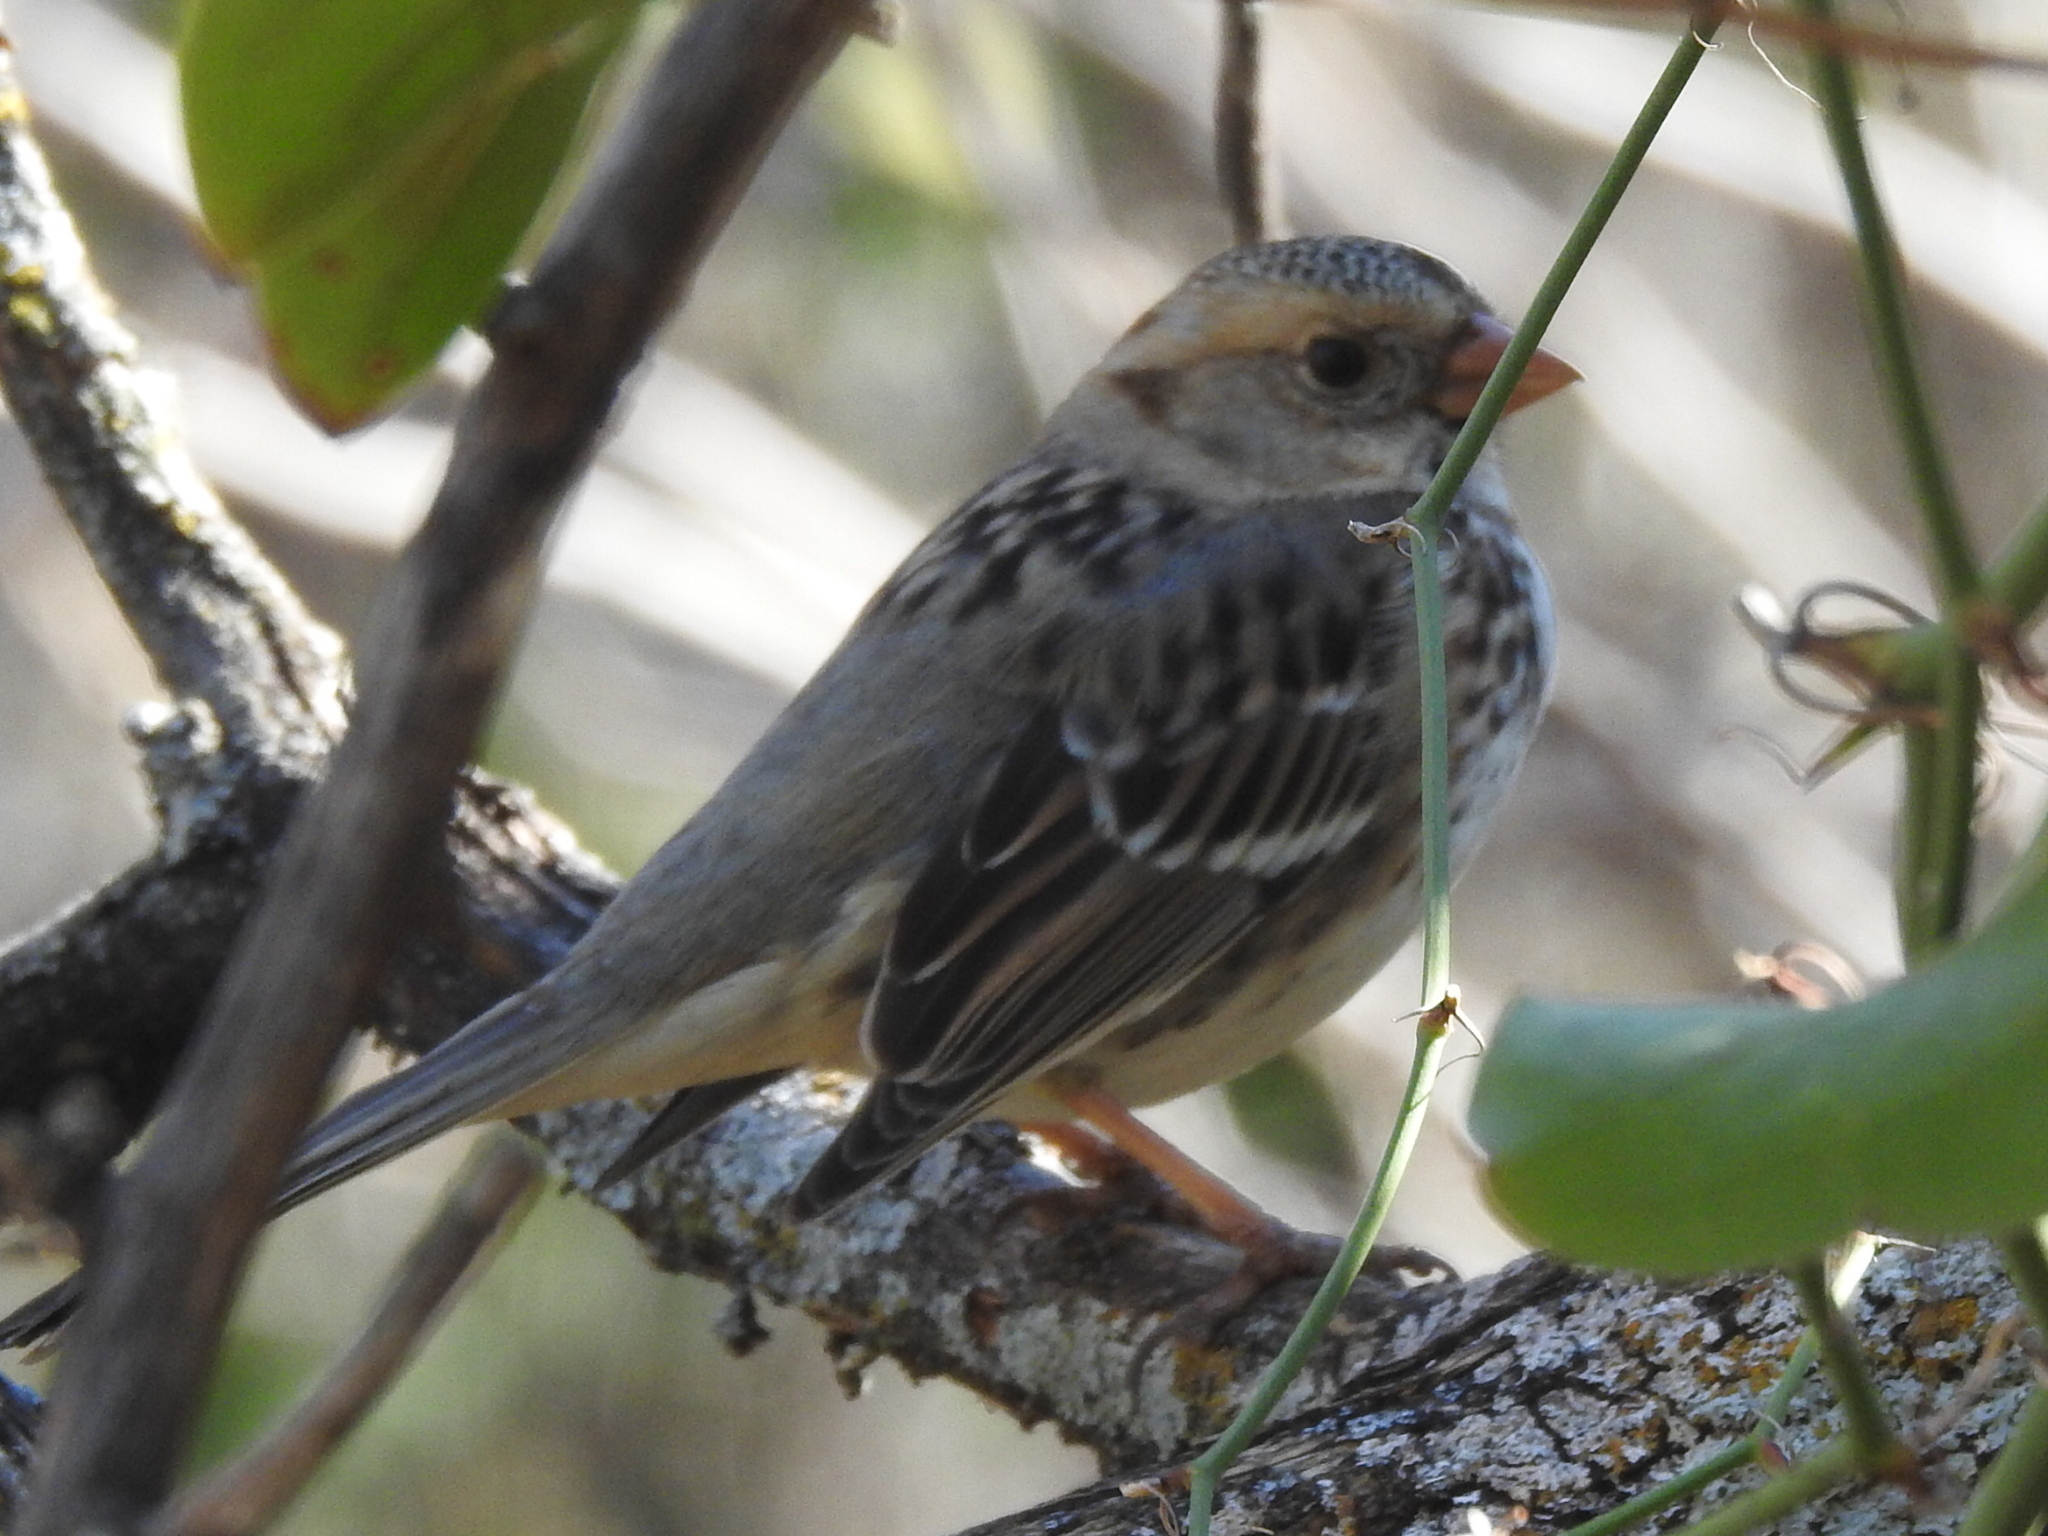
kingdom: Animalia
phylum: Chordata
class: Aves
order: Passeriformes
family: Passerellidae
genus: Zonotrichia
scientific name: Zonotrichia querula
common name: Harris's sparrow
